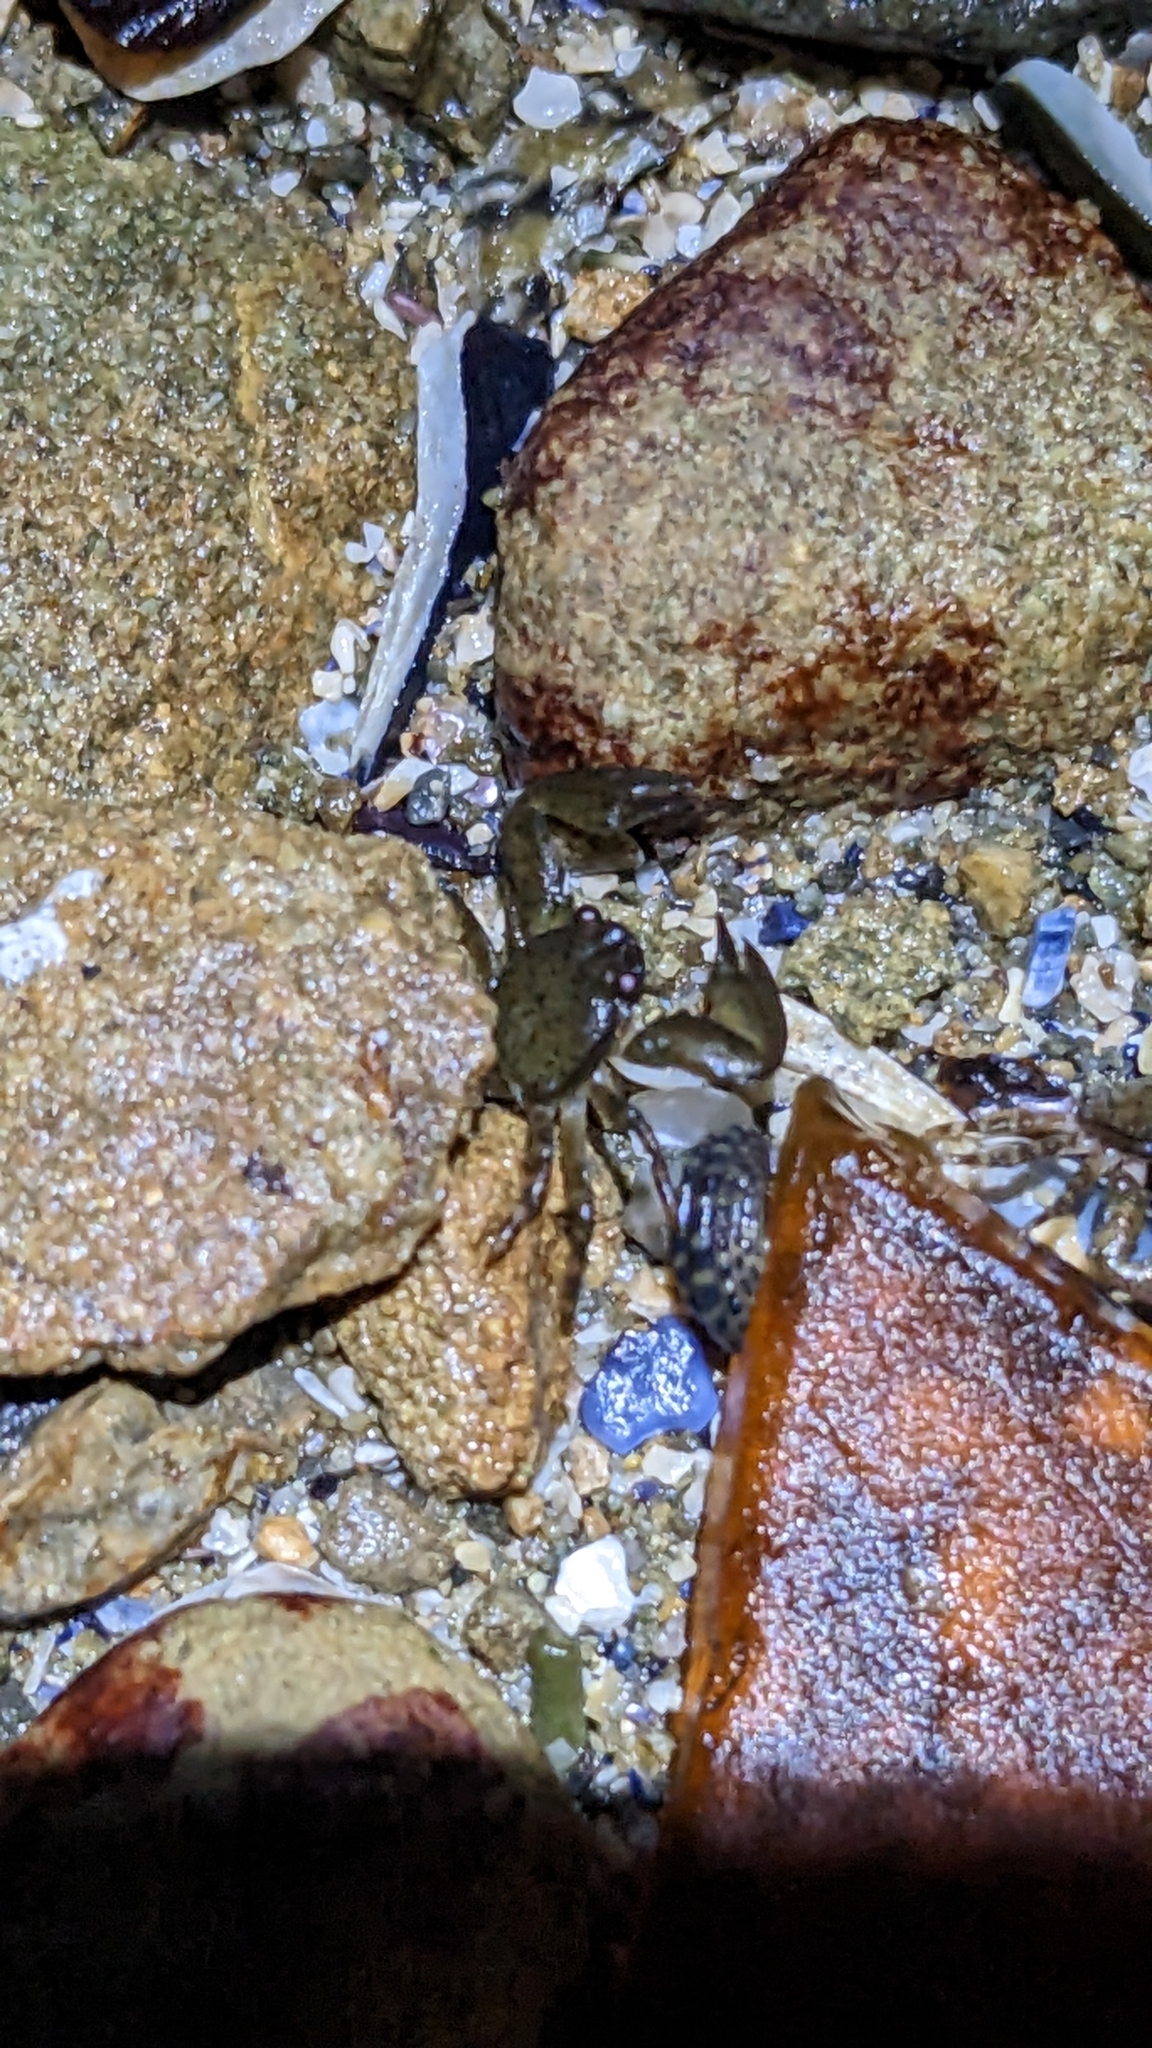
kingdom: Animalia
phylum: Arthropoda
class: Malacostraca
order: Decapoda
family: Porcellanidae
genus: Petrolisthes
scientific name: Petrolisthes elongatus
